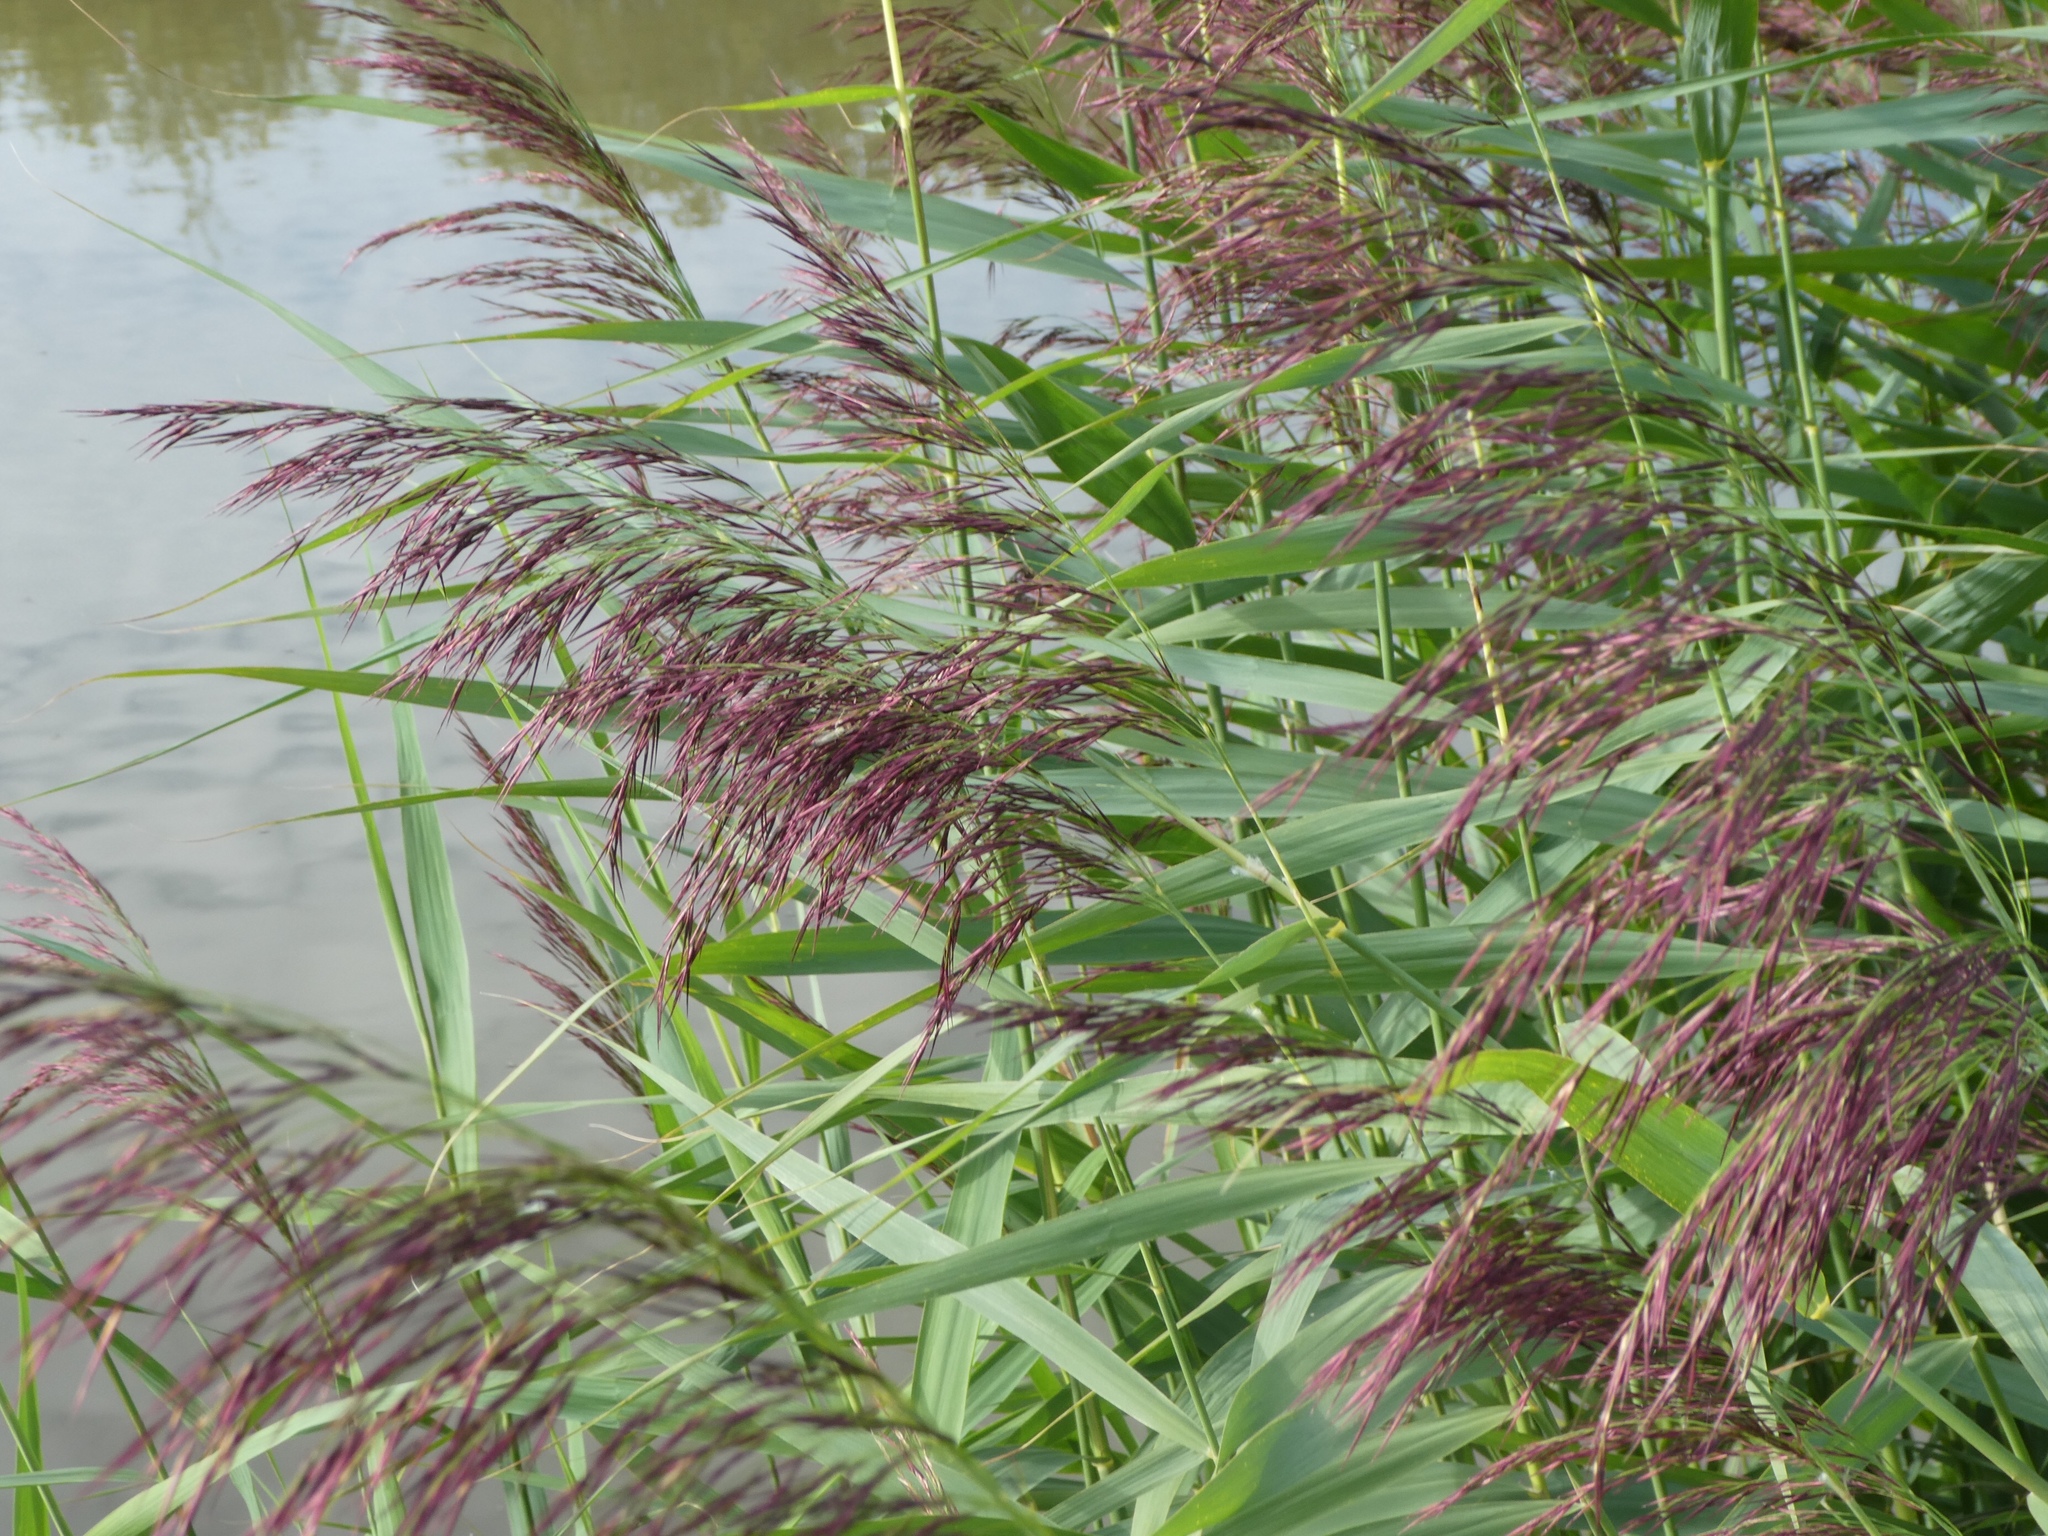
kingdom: Plantae
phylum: Tracheophyta
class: Liliopsida
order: Poales
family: Poaceae
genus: Phragmites
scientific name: Phragmites australis
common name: Common reed
